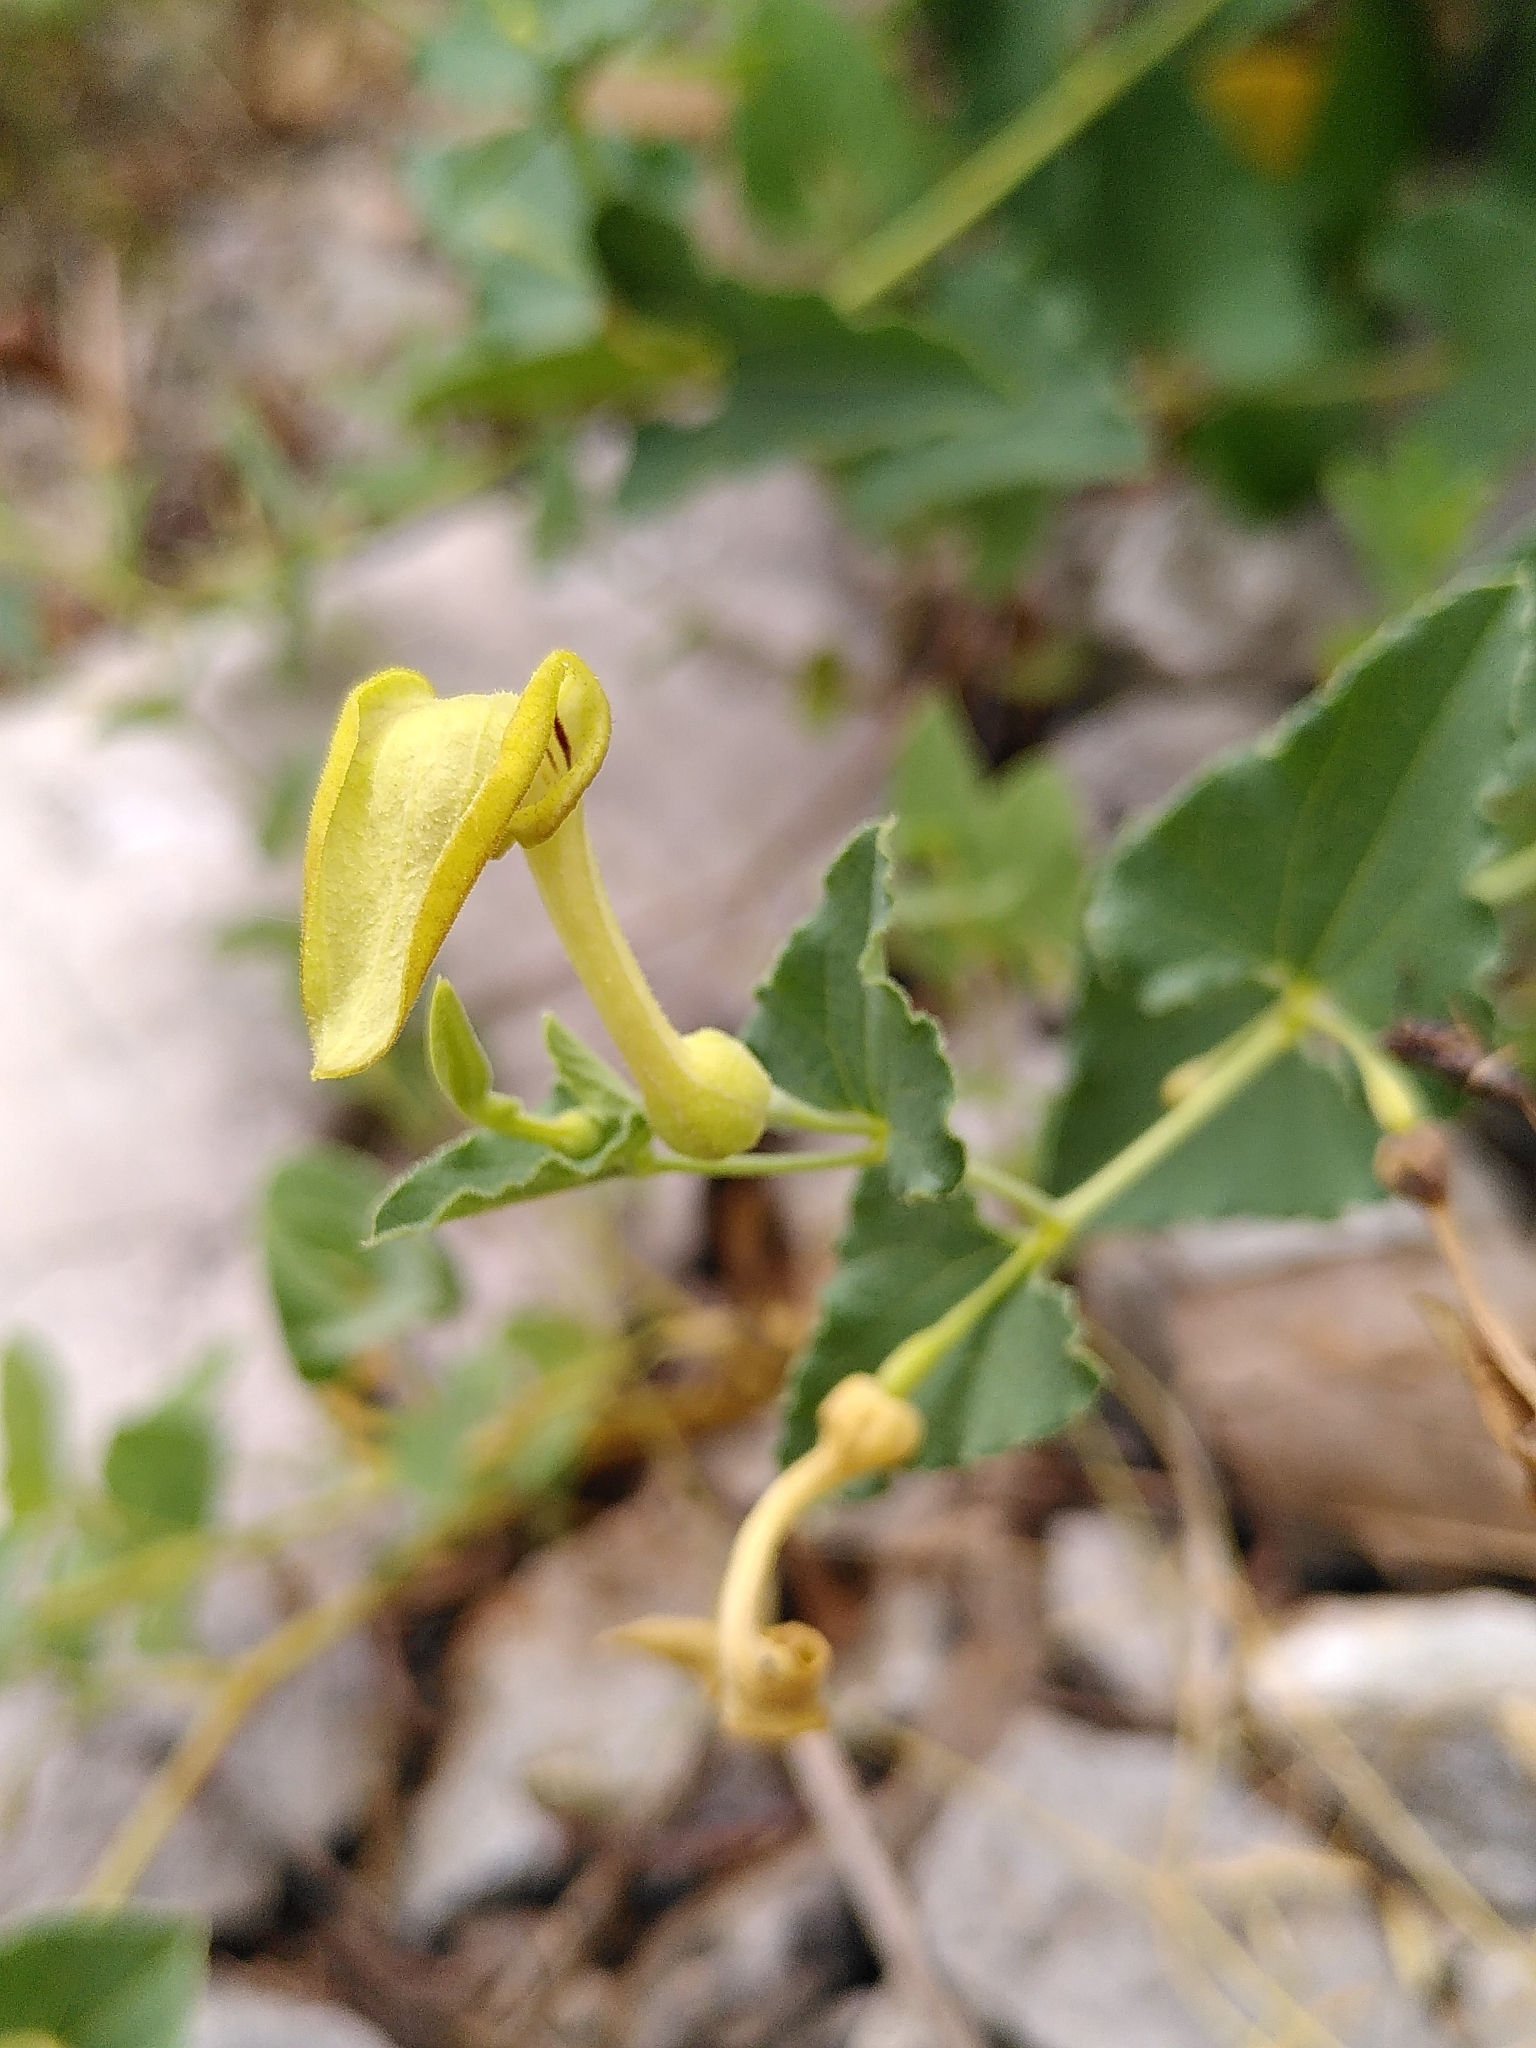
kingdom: Plantae
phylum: Tracheophyta
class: Magnoliopsida
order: Piperales
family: Aristolochiaceae
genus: Aristolochia
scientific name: Aristolochia pistolochia
